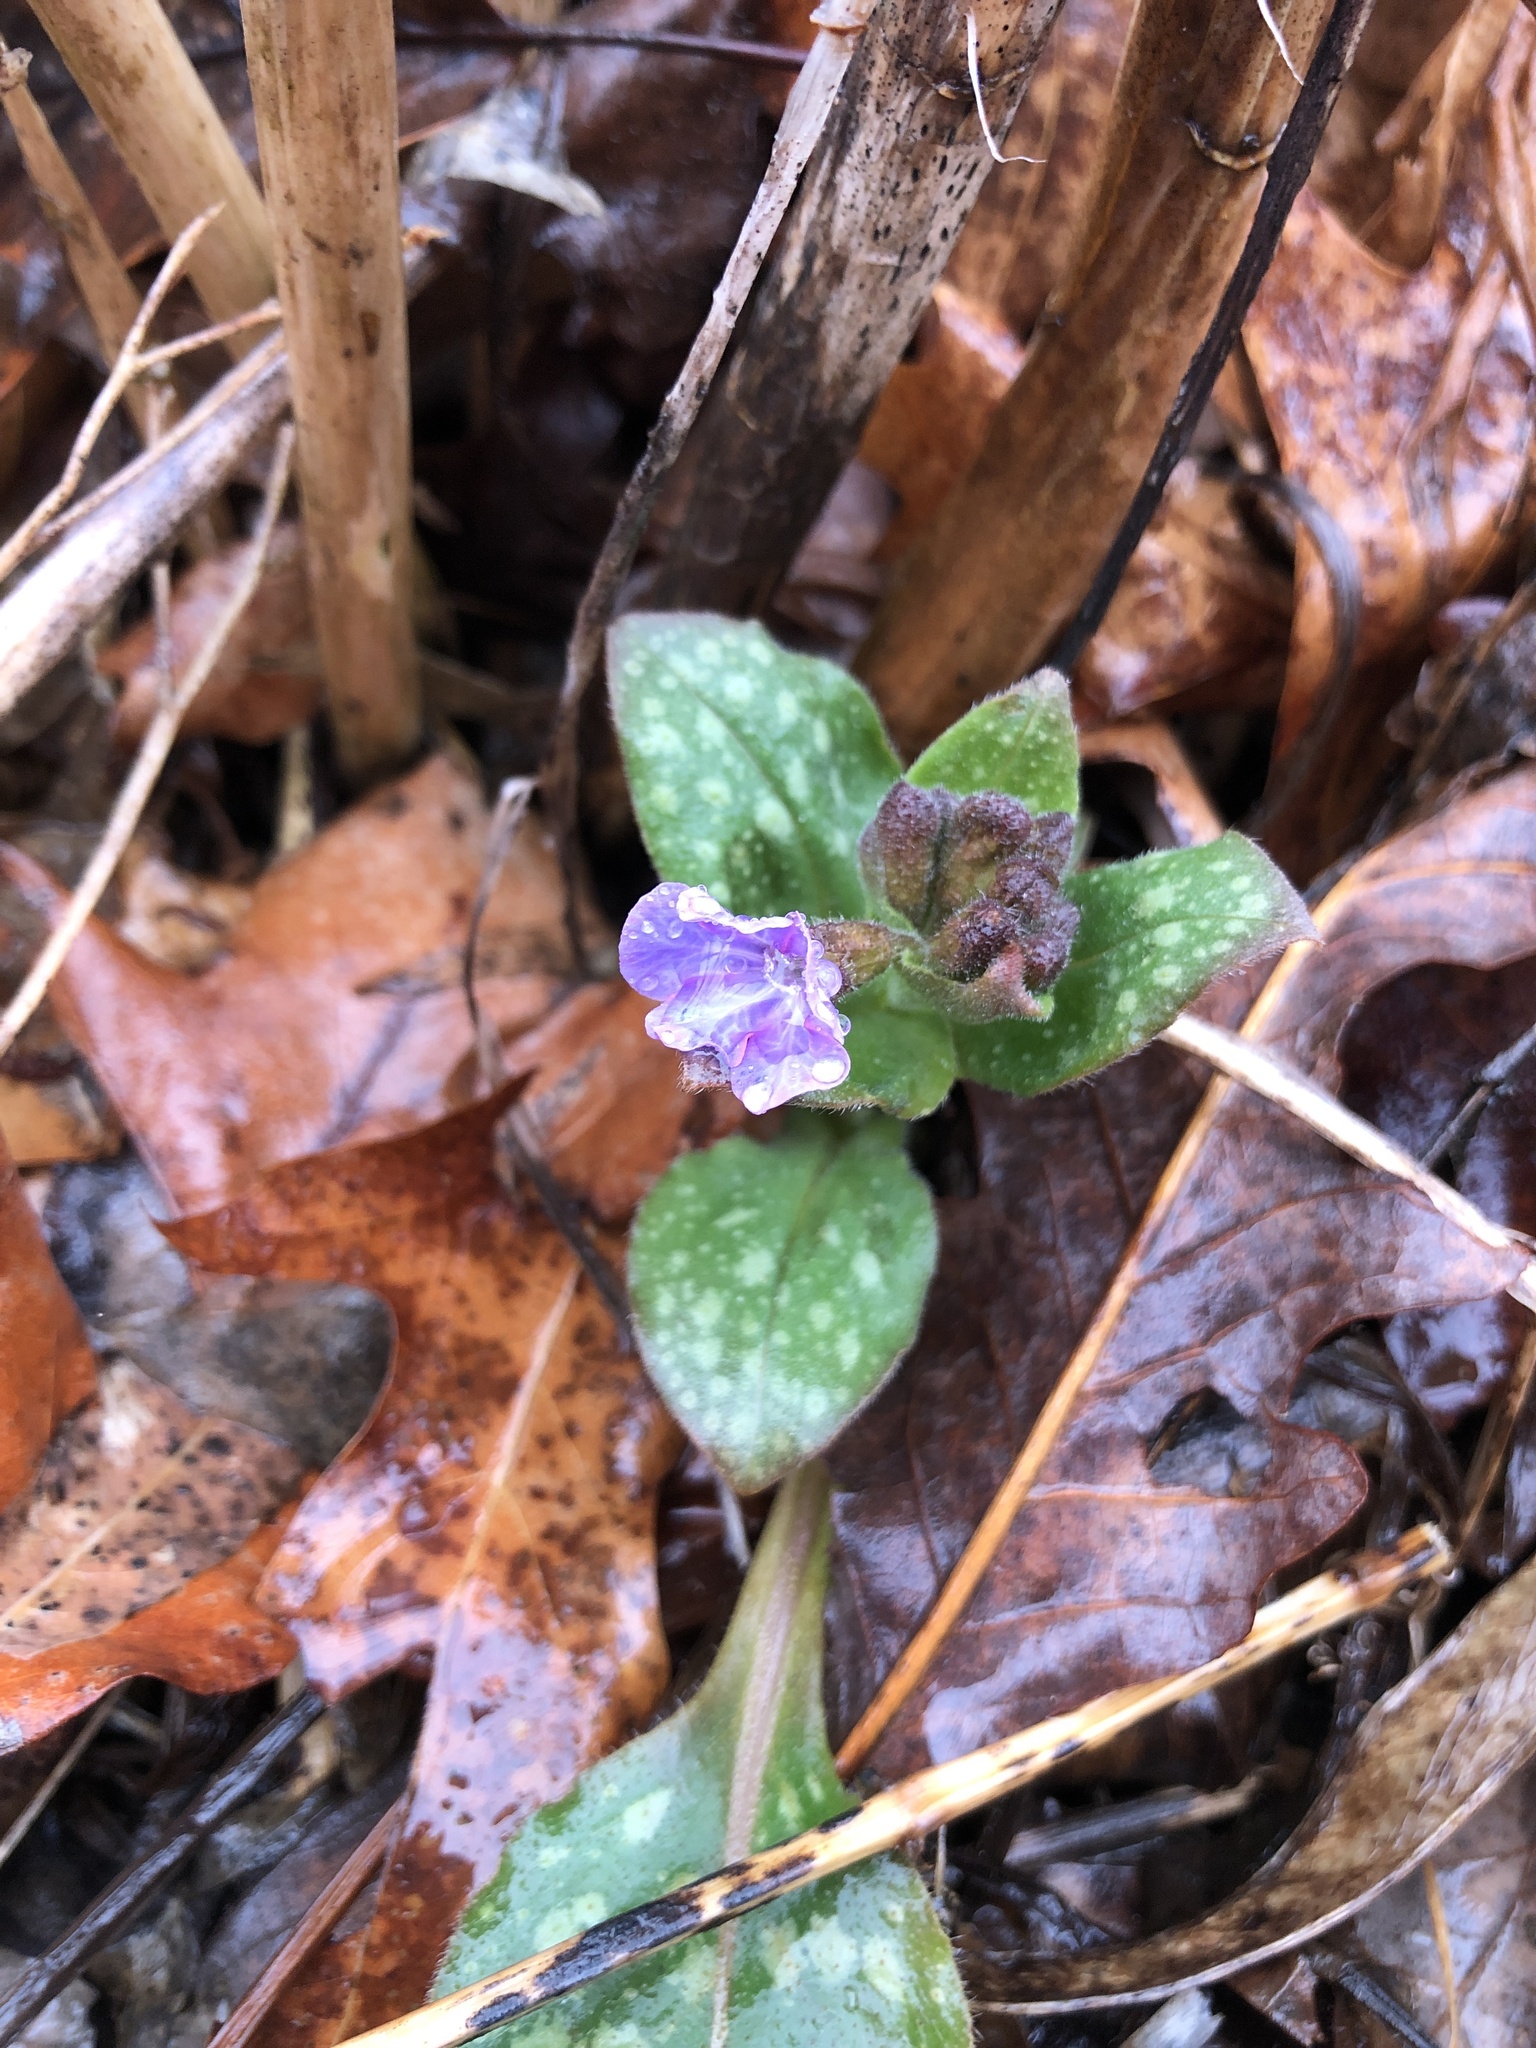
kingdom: Plantae
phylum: Tracheophyta
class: Magnoliopsida
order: Boraginales
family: Boraginaceae
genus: Pulmonaria
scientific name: Pulmonaria officinalis
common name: Lungwort
